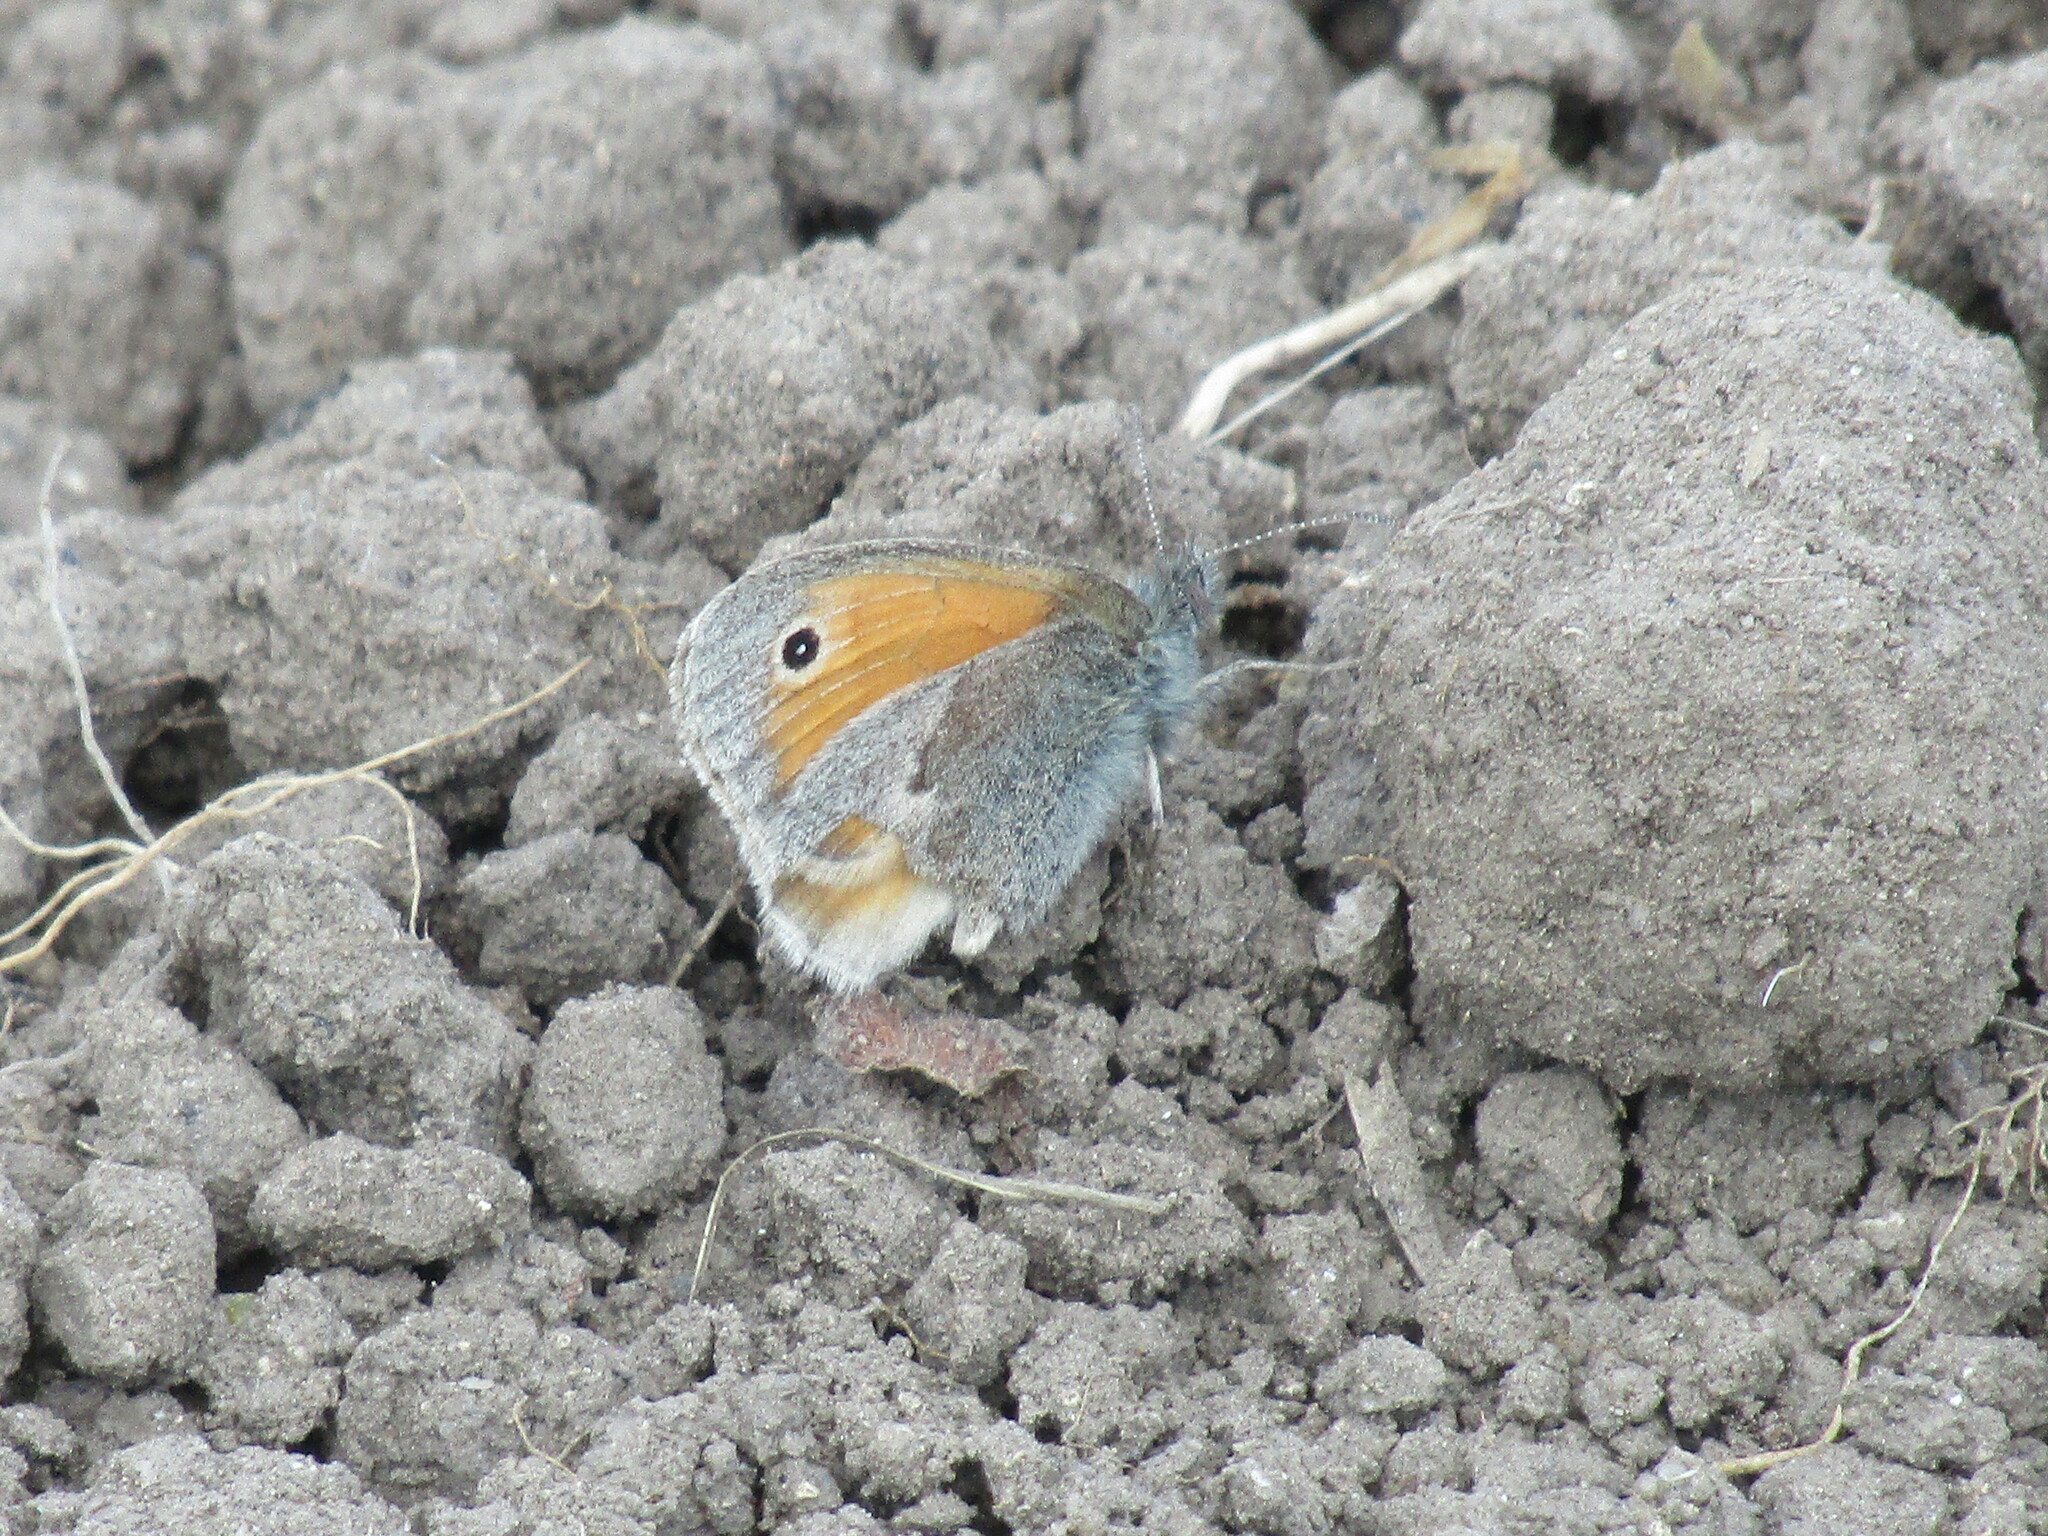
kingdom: Animalia
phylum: Arthropoda
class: Insecta
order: Lepidoptera
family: Nymphalidae
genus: Coenonympha
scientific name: Coenonympha pamphilus
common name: Small heath
